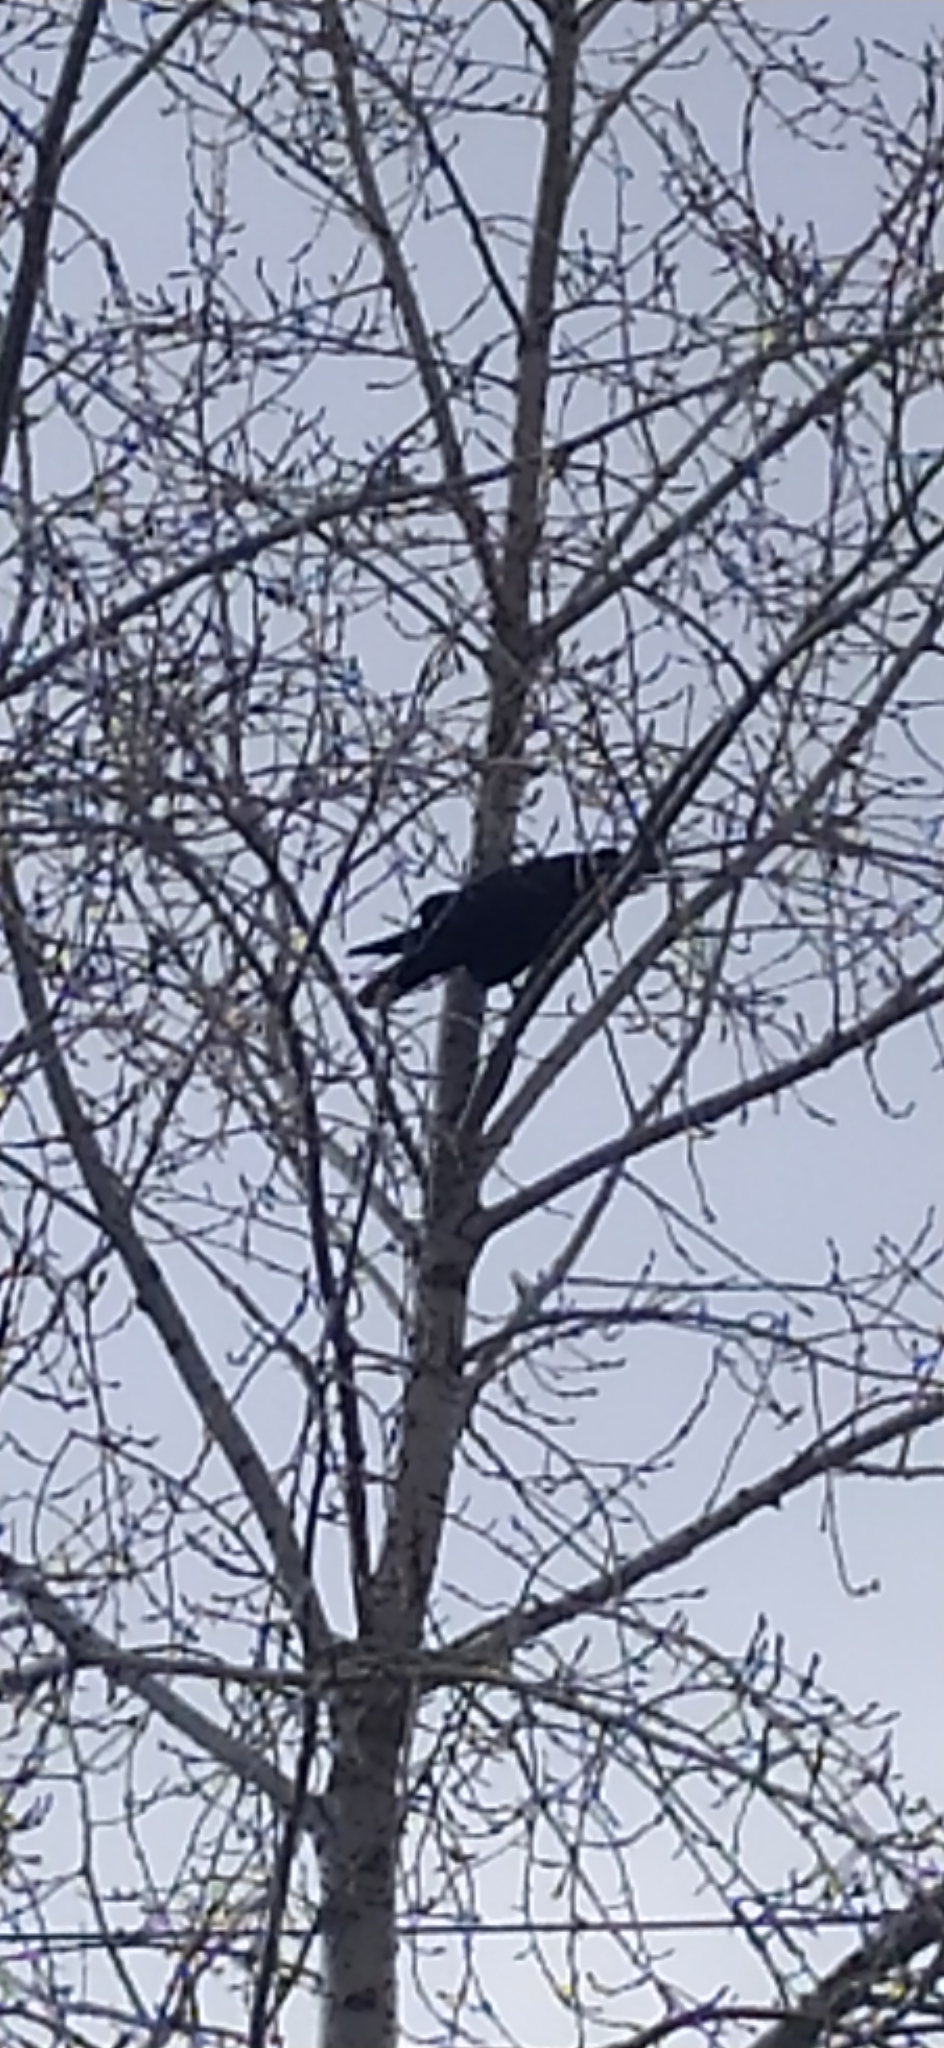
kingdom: Animalia
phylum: Chordata
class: Aves
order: Passeriformes
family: Corvidae
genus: Corvus
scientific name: Corvus corax
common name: Common raven
